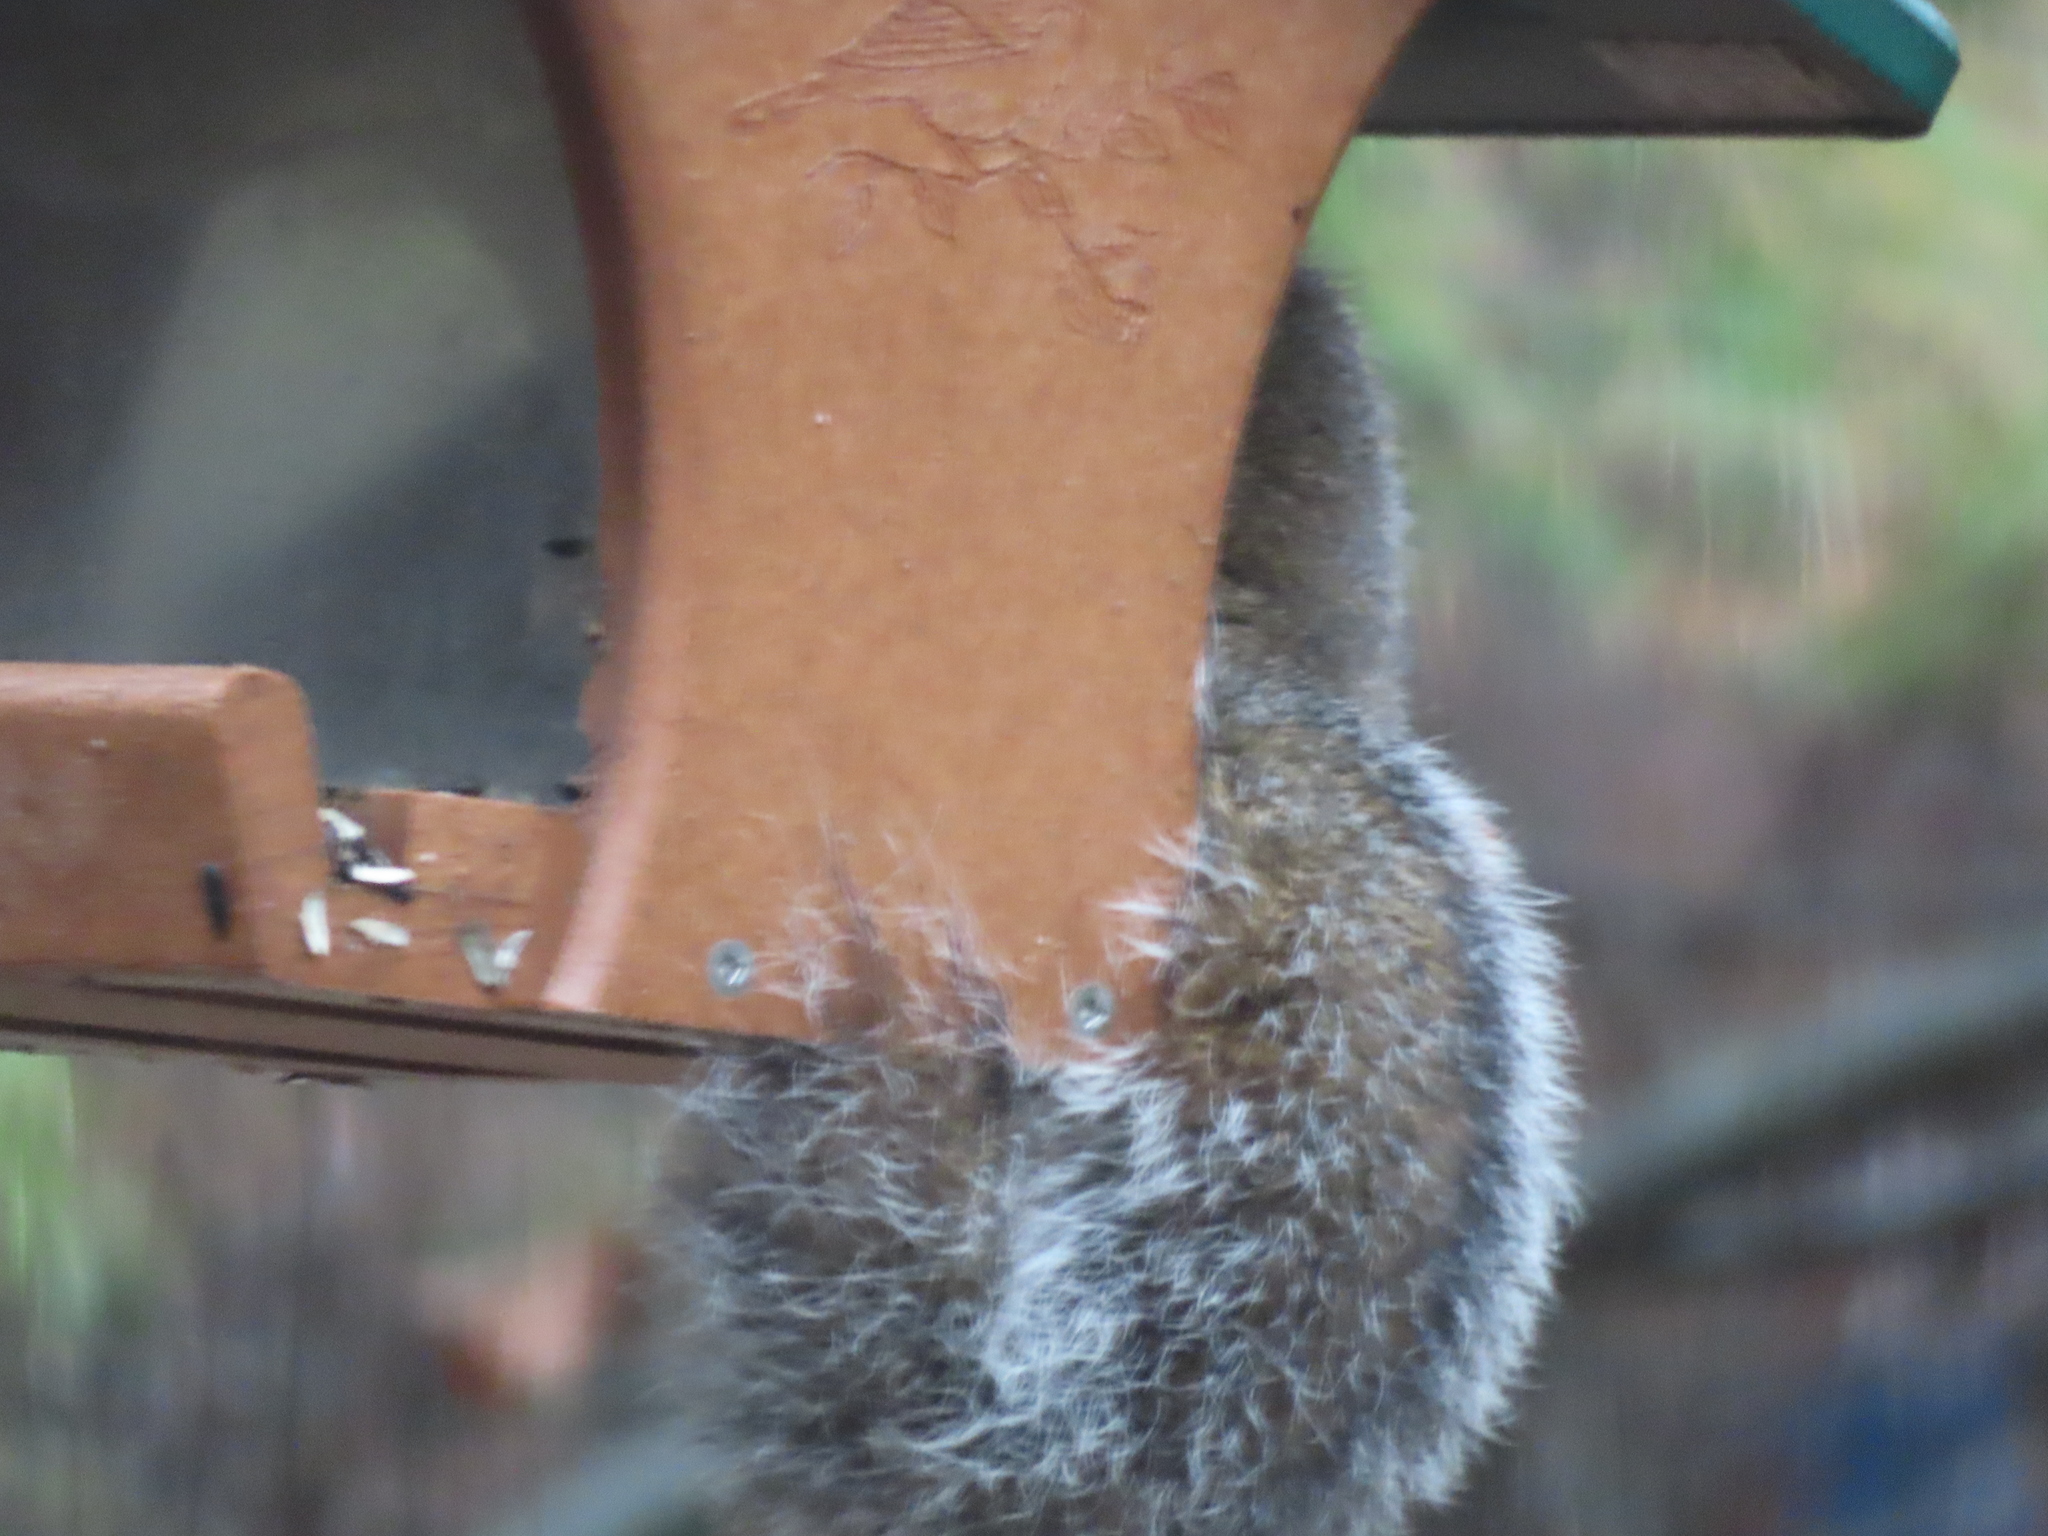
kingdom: Animalia
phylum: Chordata
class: Mammalia
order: Rodentia
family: Sciuridae
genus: Sciurus
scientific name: Sciurus carolinensis
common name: Eastern gray squirrel
